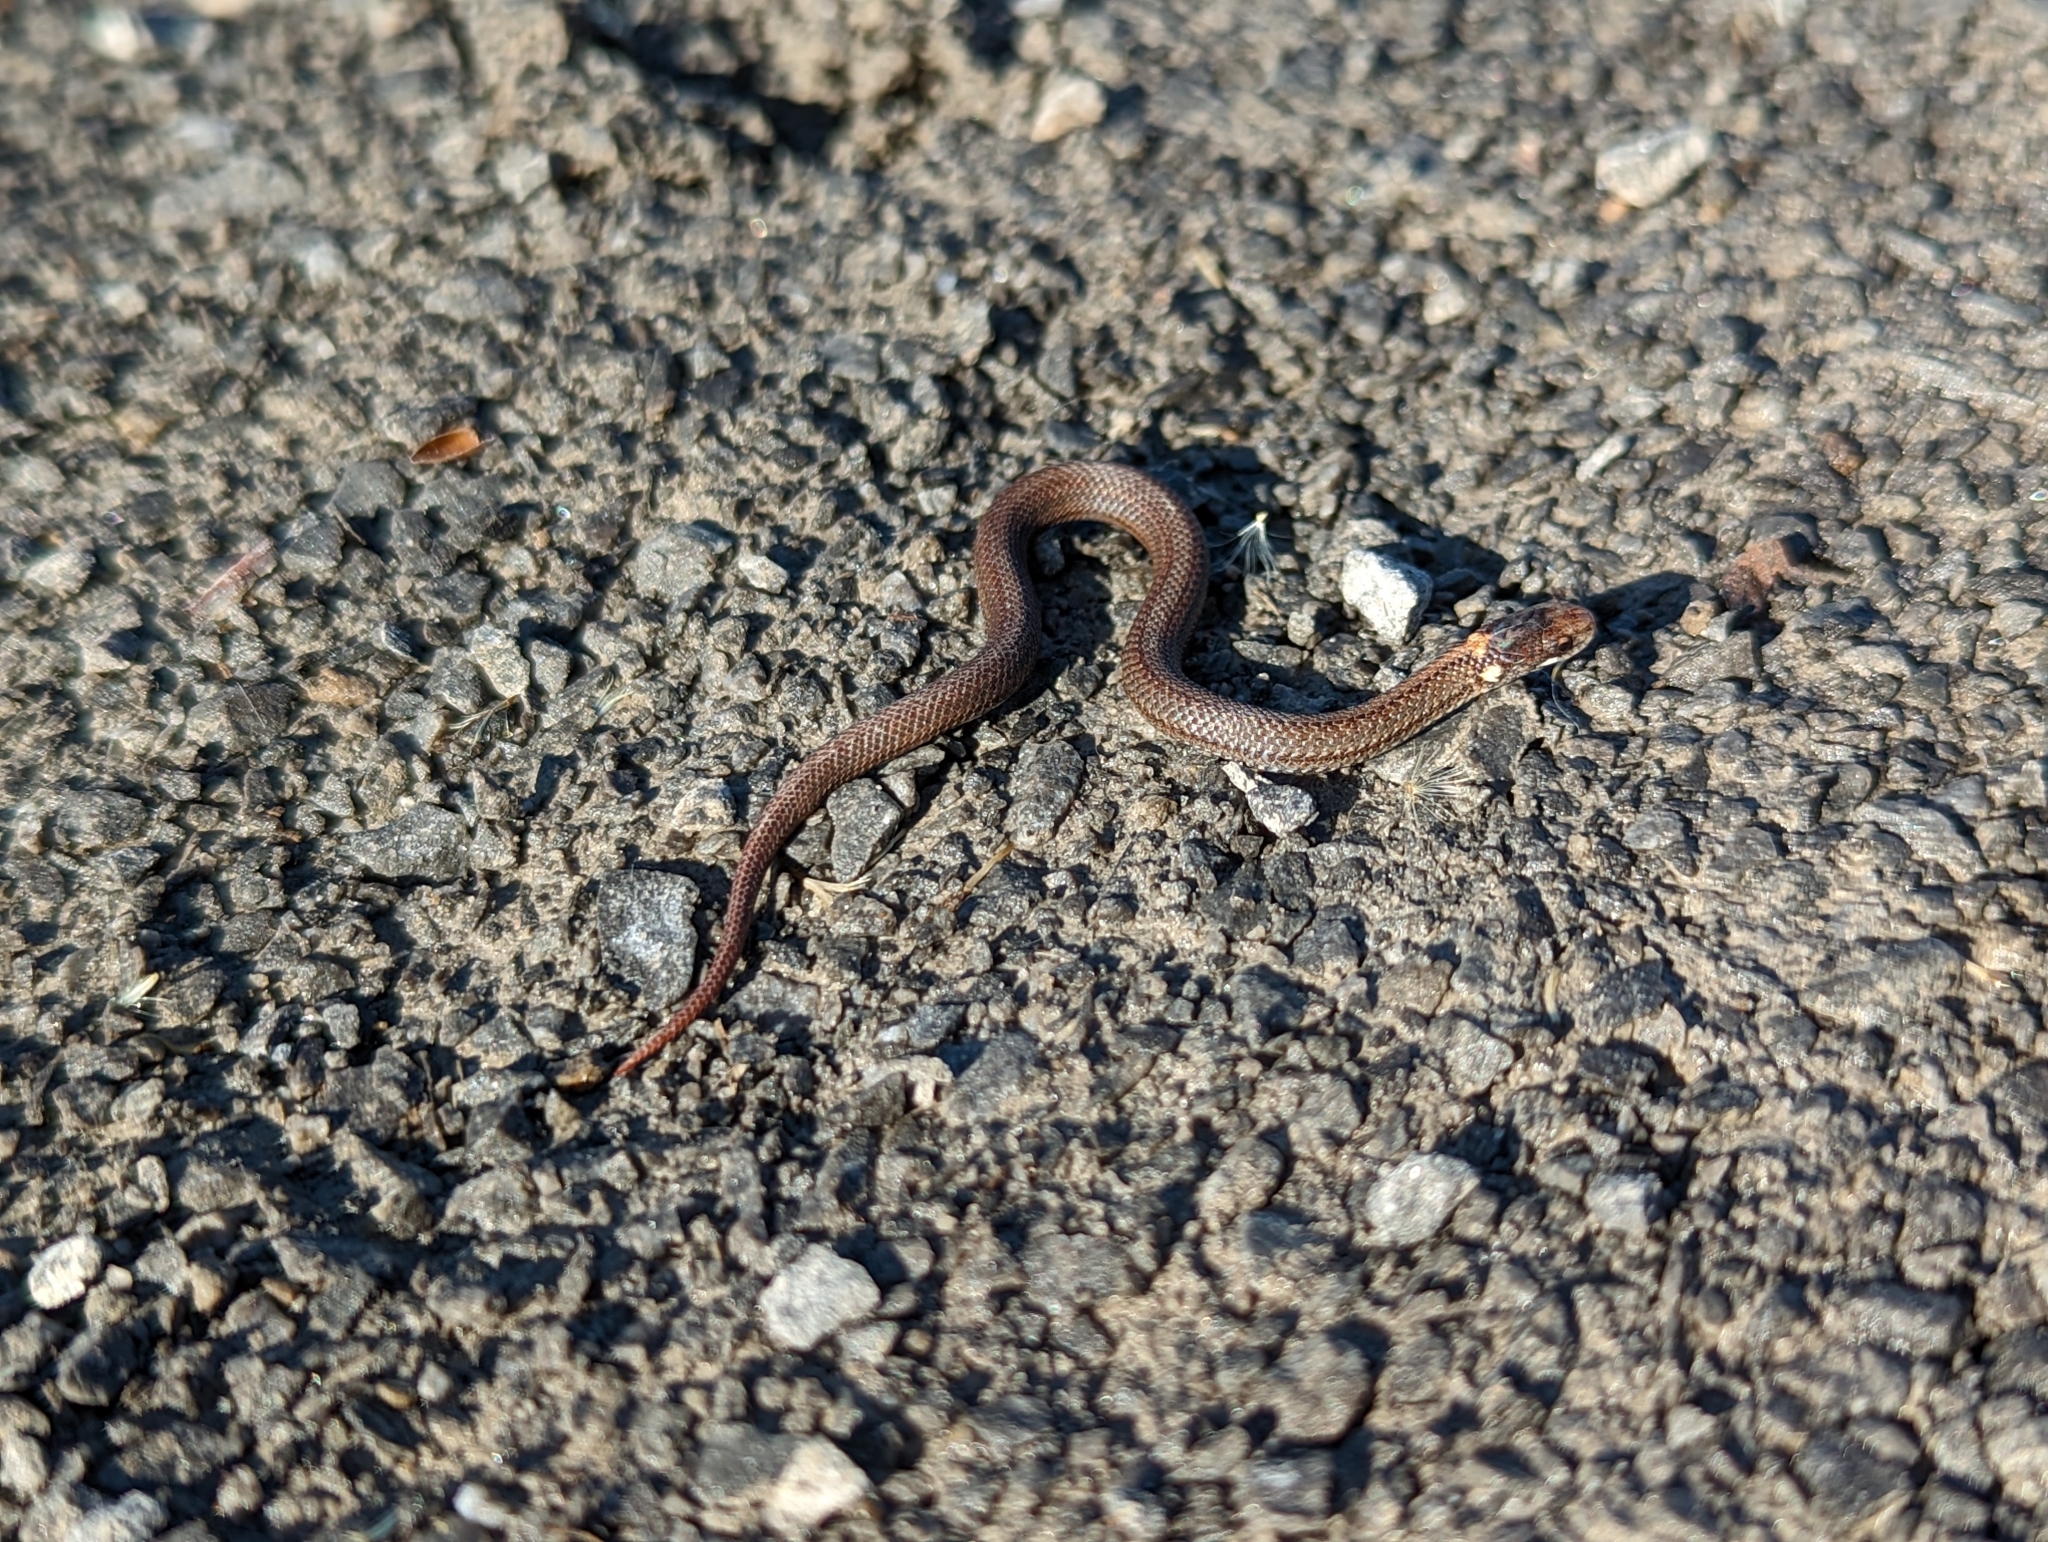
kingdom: Animalia
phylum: Chordata
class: Squamata
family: Colubridae
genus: Storeria
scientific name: Storeria occipitomaculata
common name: Redbelly snake
